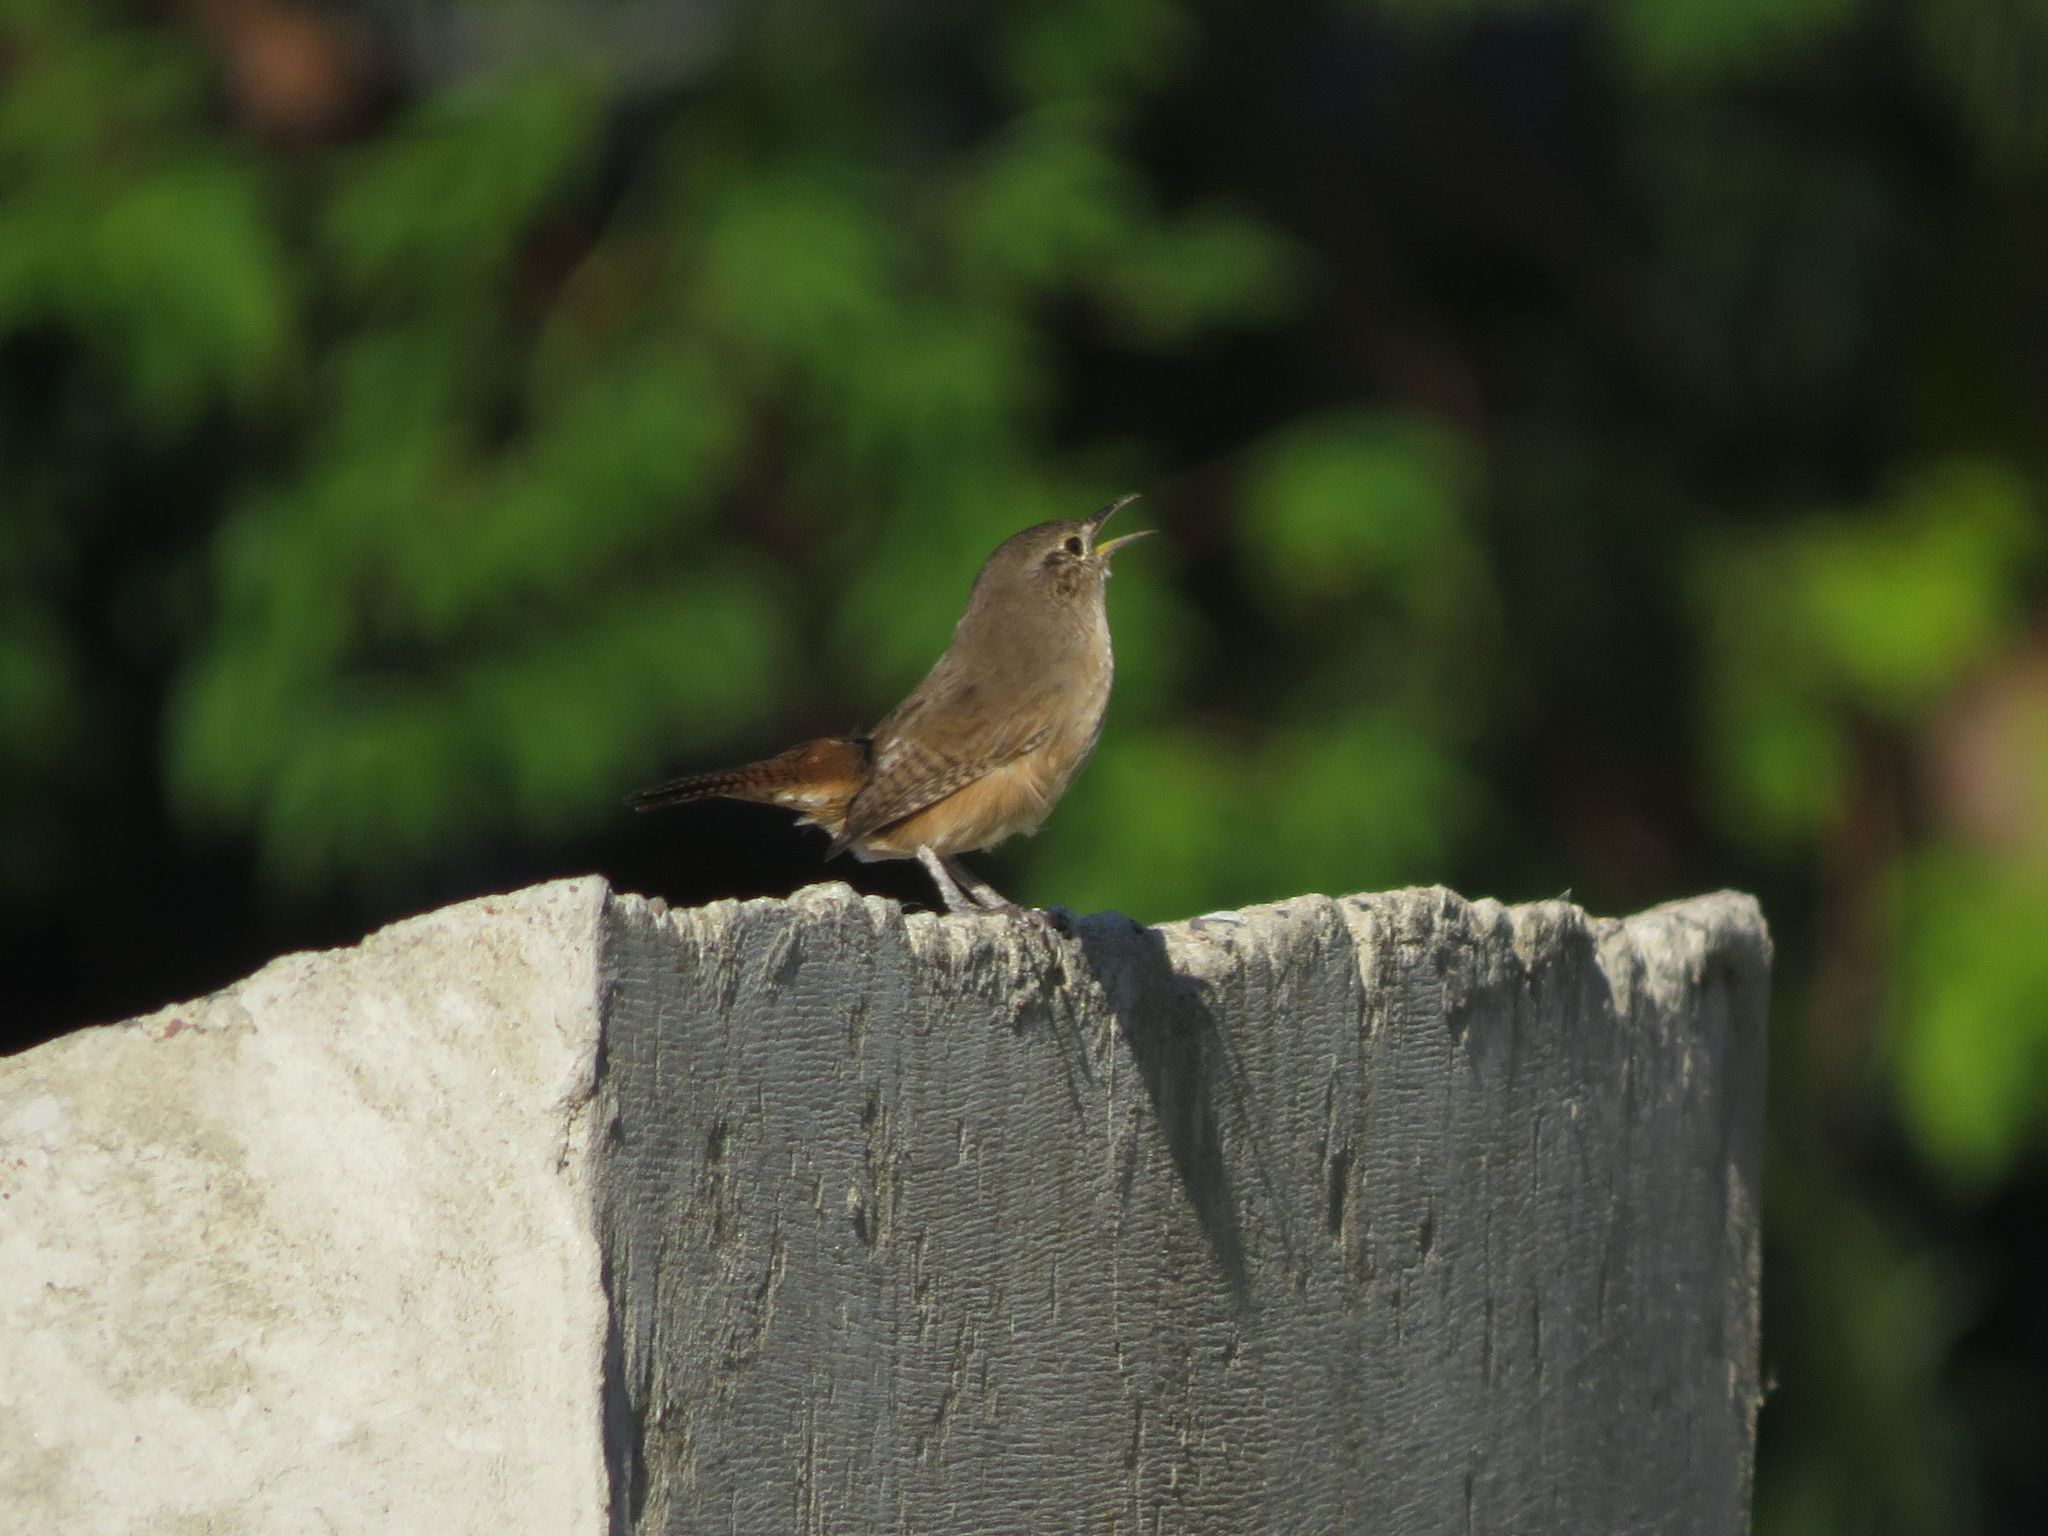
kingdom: Animalia
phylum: Chordata
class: Aves
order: Passeriformes
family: Troglodytidae
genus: Troglodytes
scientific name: Troglodytes aedon
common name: House wren
